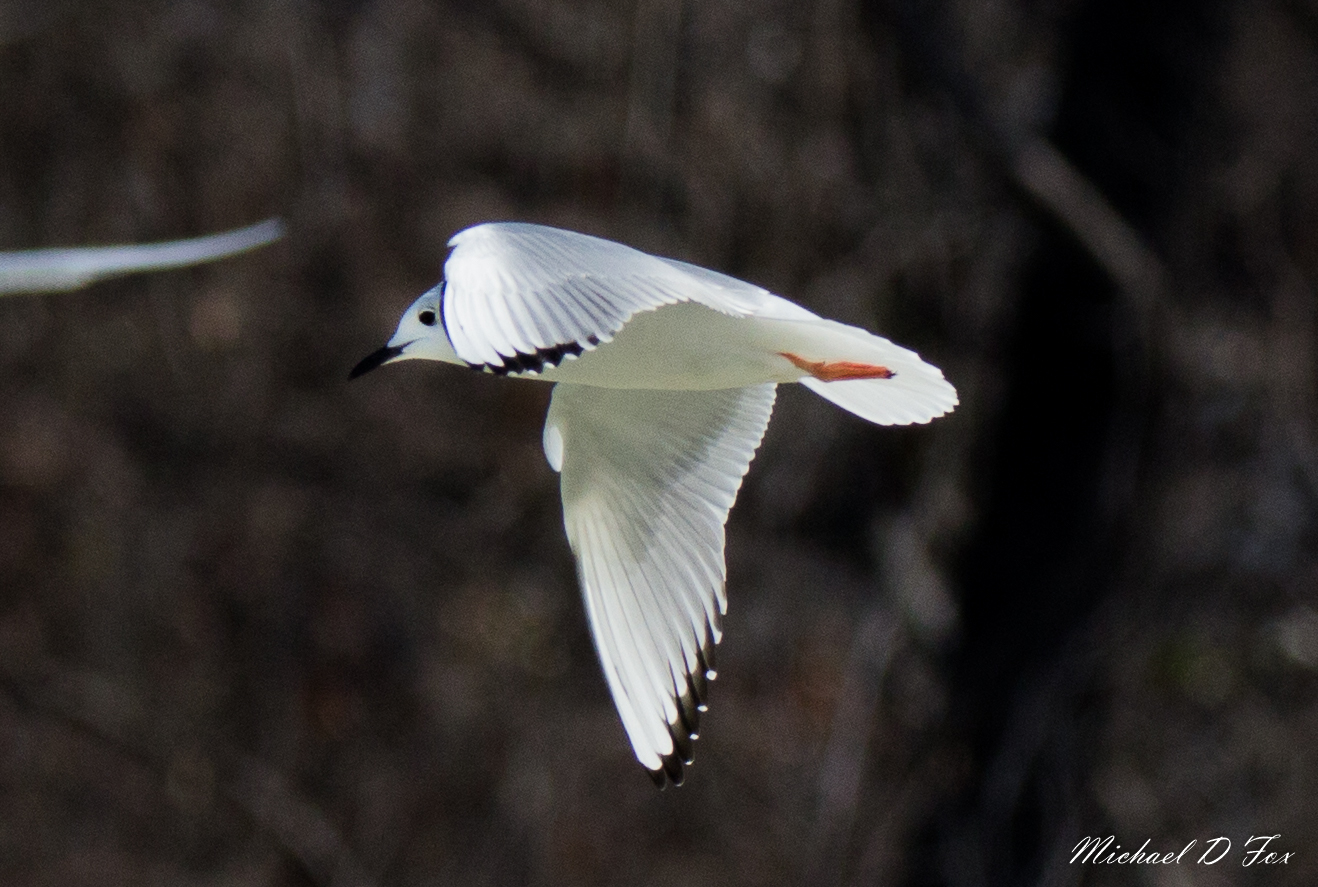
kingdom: Animalia
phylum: Chordata
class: Aves
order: Charadriiformes
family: Laridae
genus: Chroicocephalus
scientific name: Chroicocephalus philadelphia
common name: Bonaparte's gull
